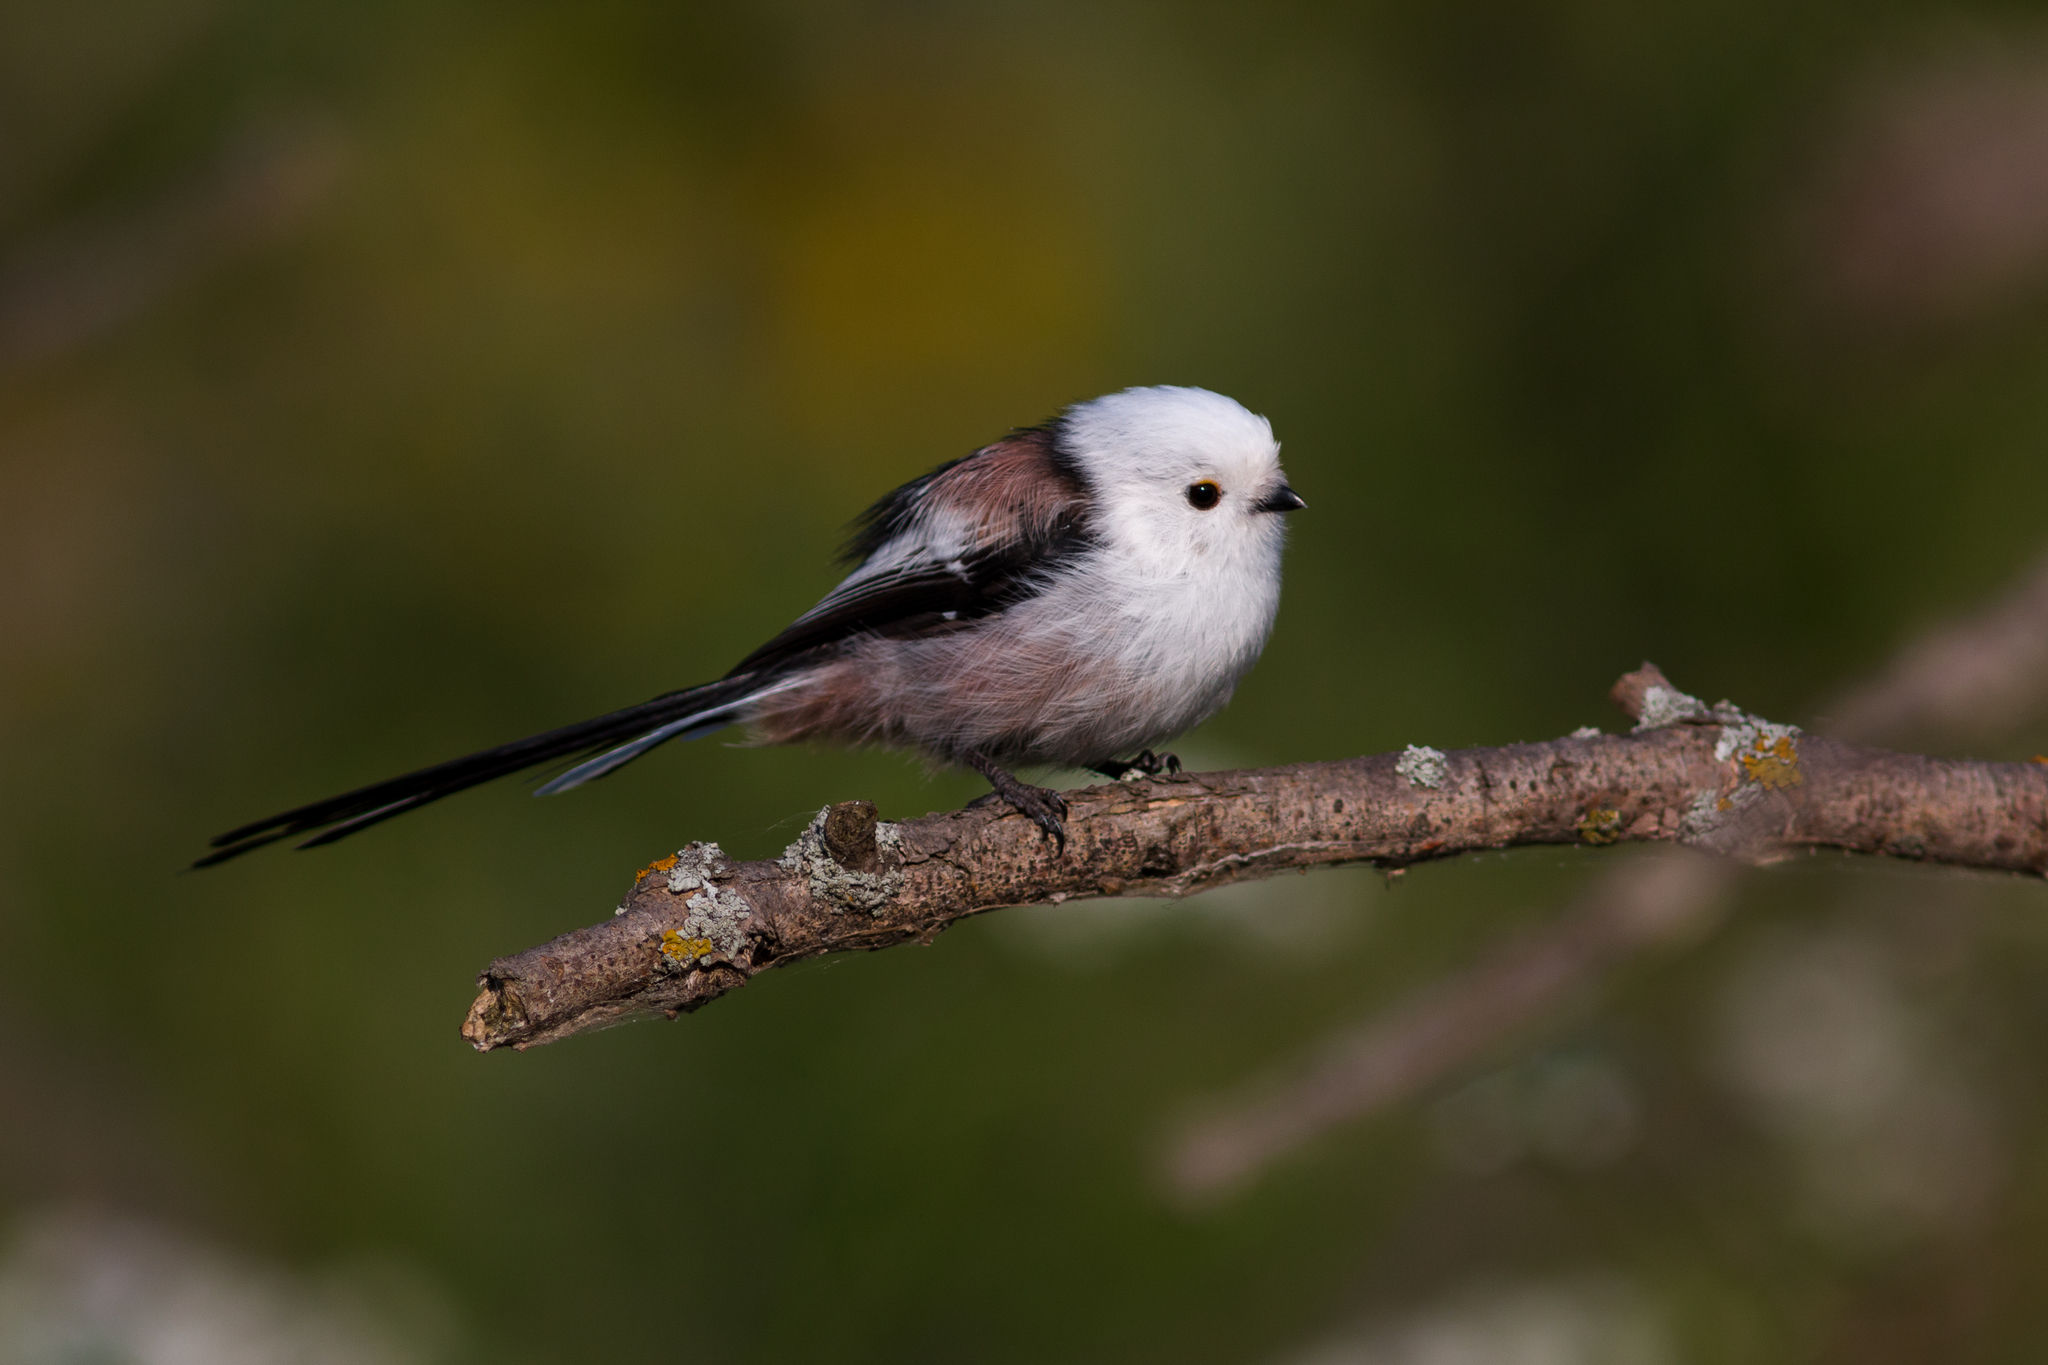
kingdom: Animalia
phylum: Chordata
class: Aves
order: Passeriformes
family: Aegithalidae
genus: Aegithalos
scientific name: Aegithalos caudatus
